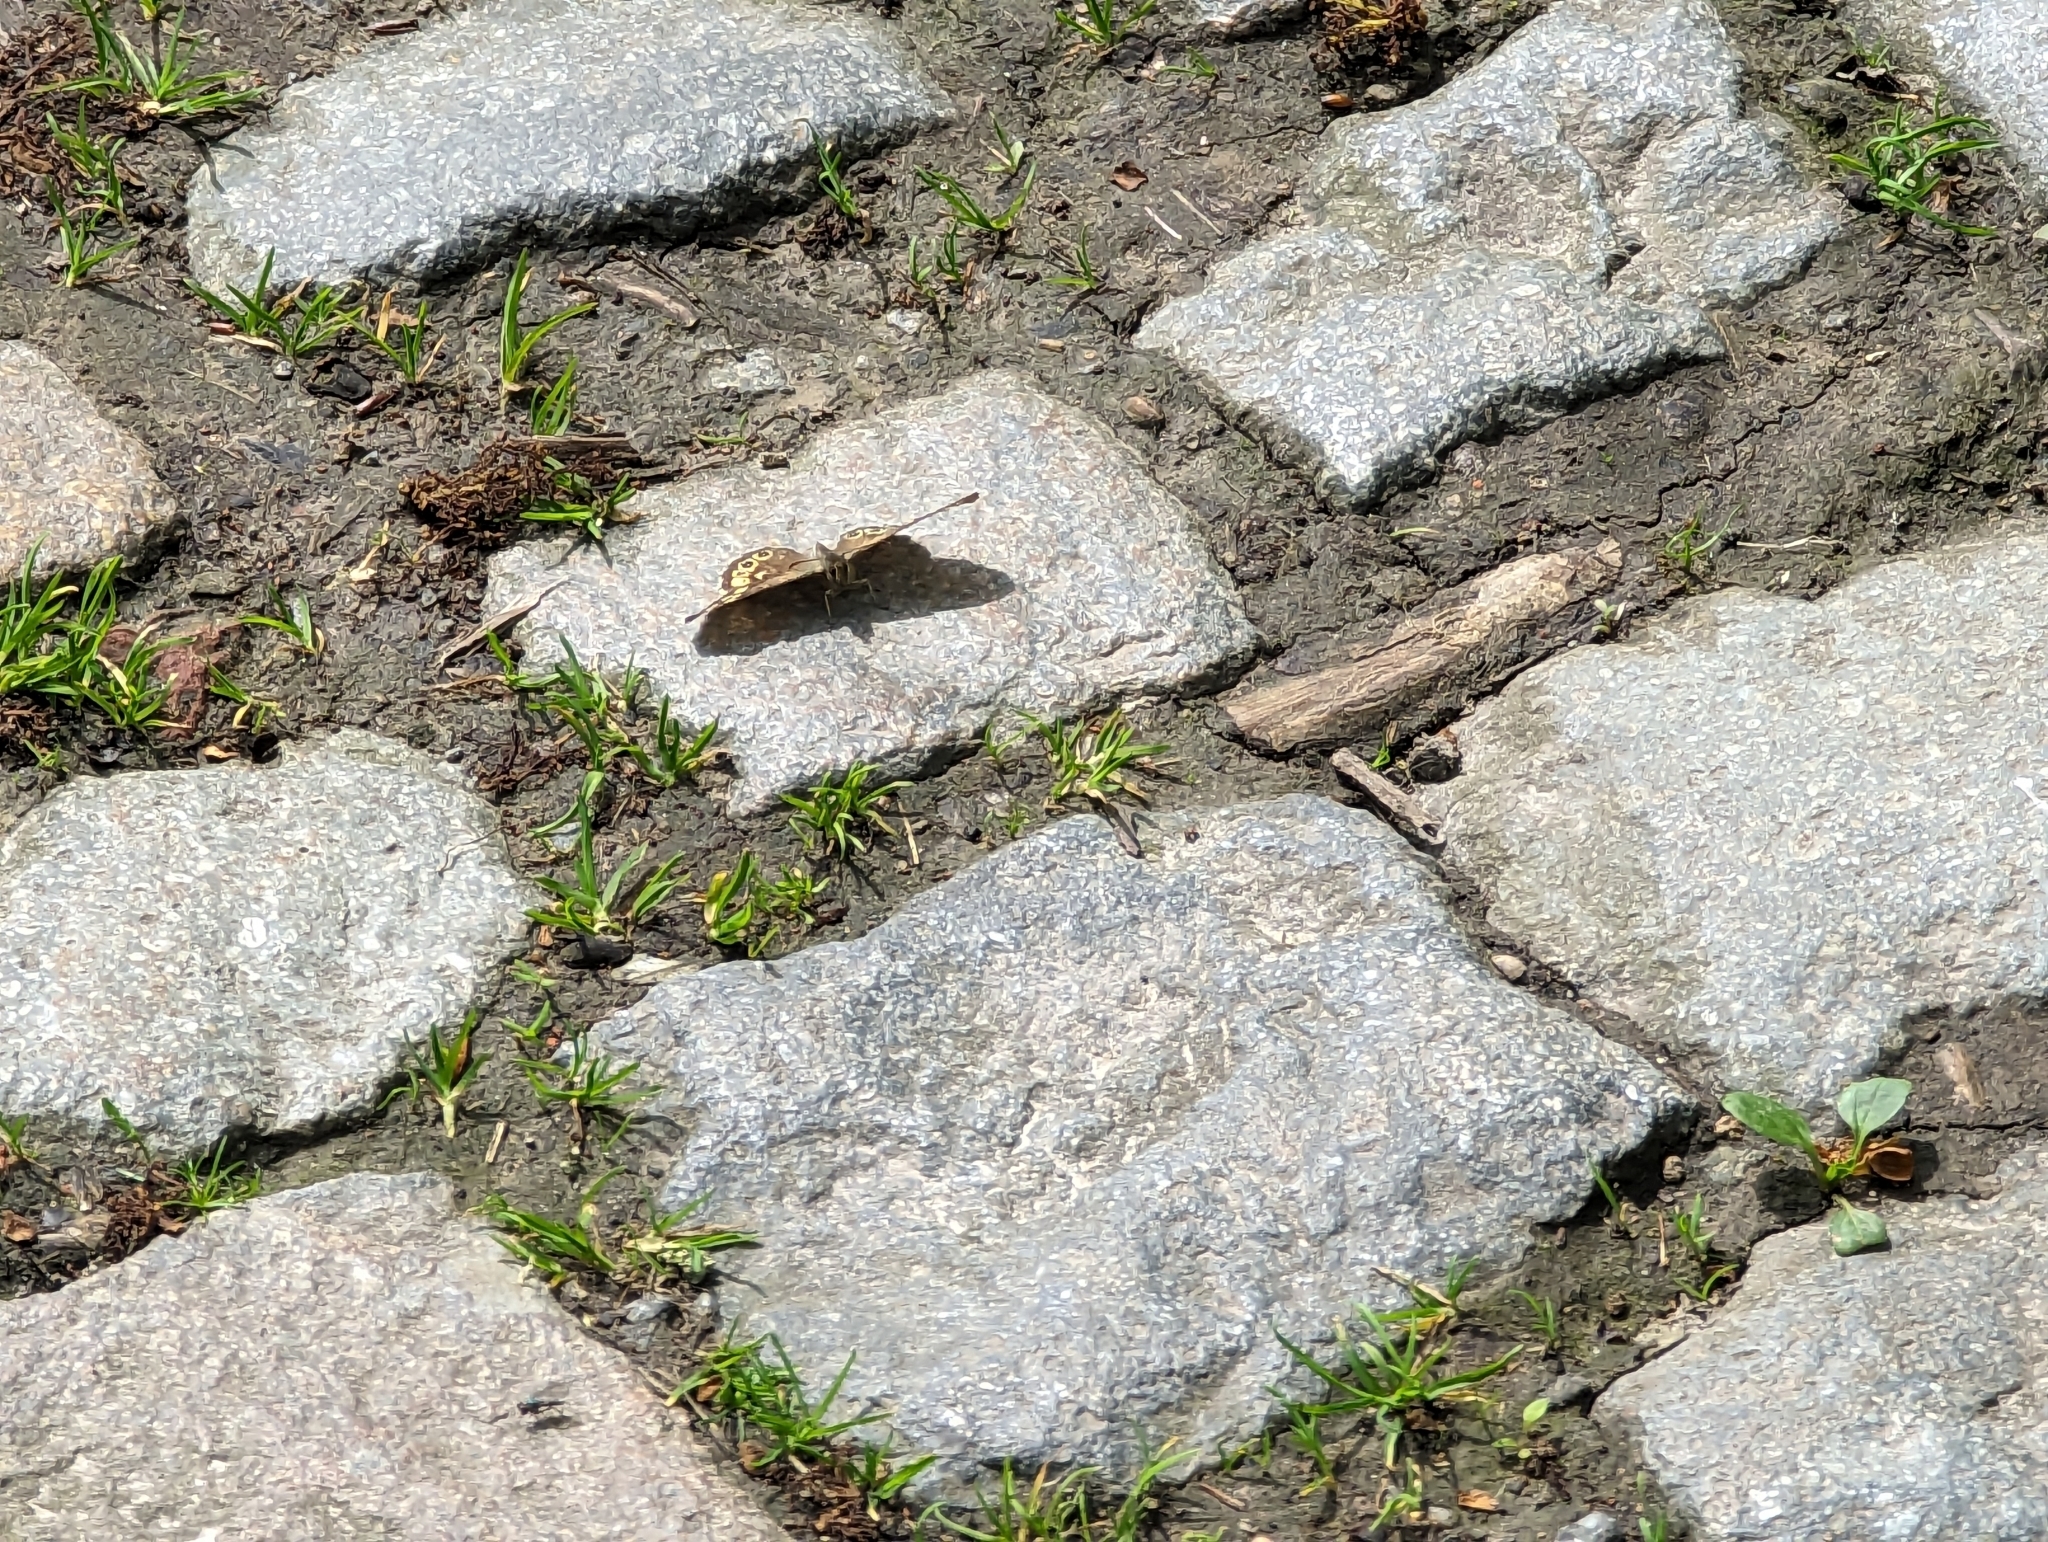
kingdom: Animalia
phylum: Arthropoda
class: Insecta
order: Lepidoptera
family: Nymphalidae
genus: Pararge
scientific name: Pararge aegeria
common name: Speckled wood
